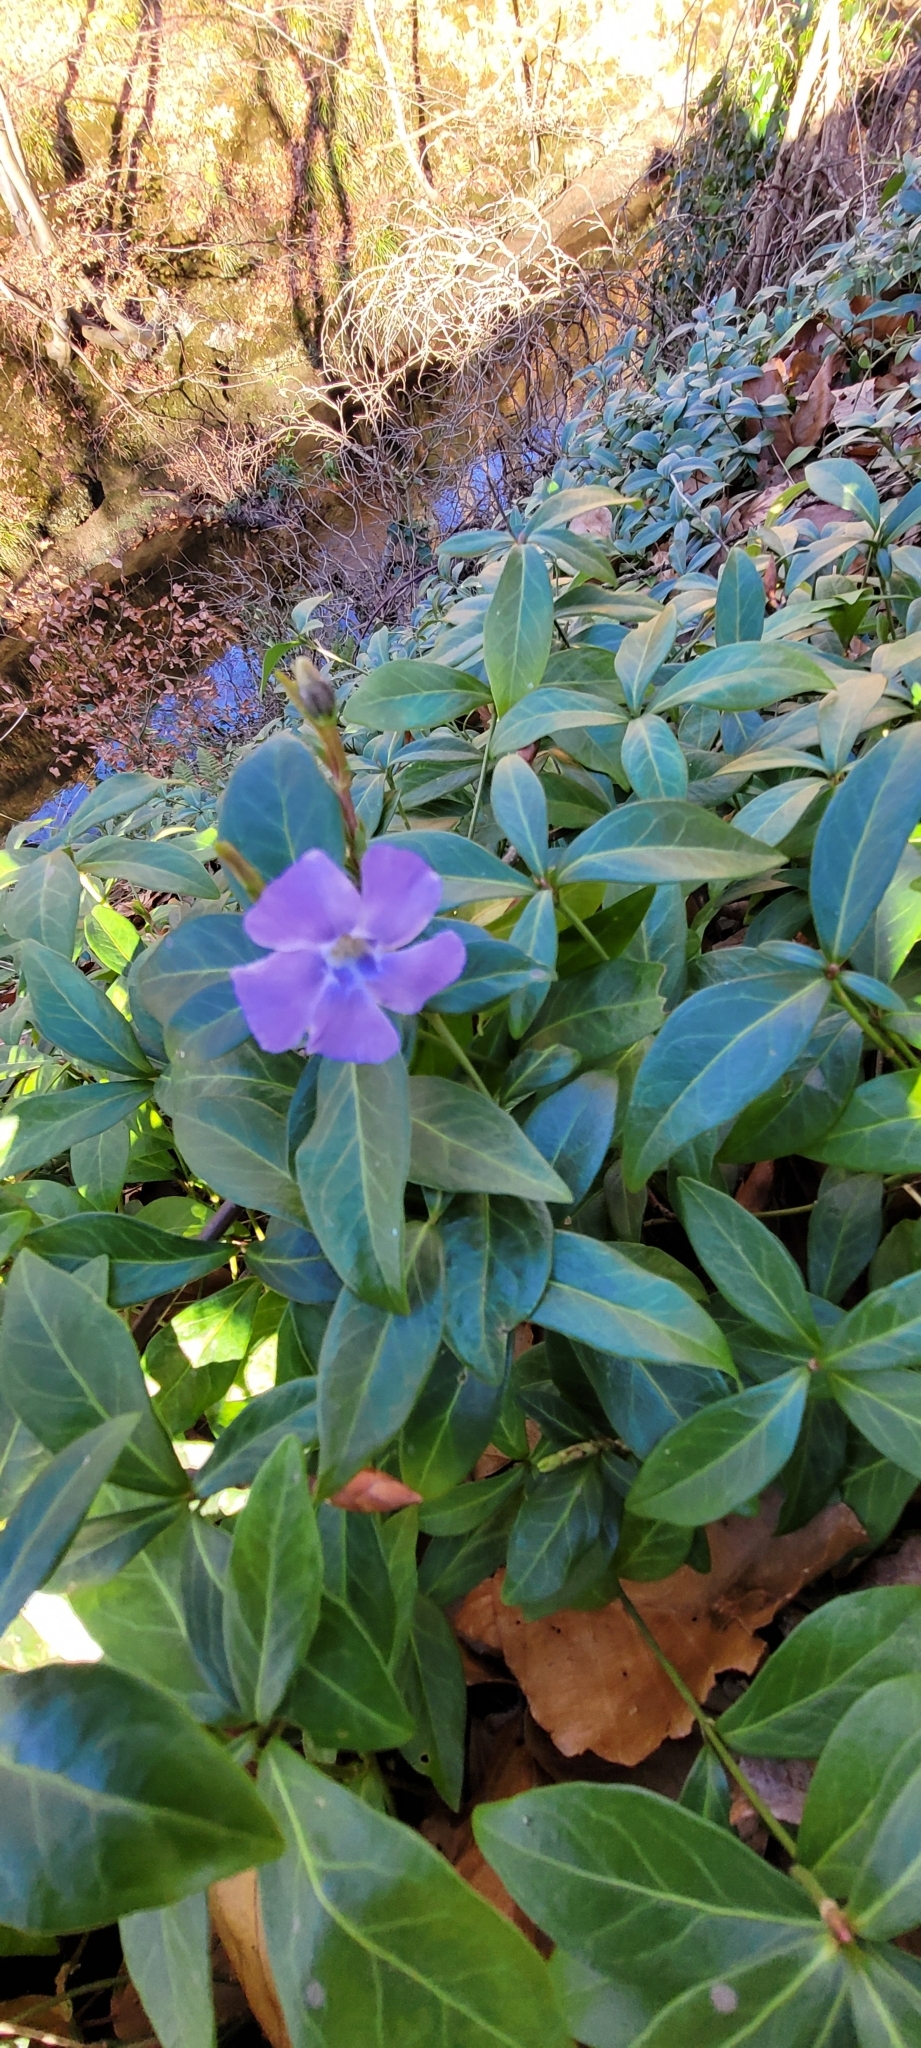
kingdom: Plantae
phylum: Tracheophyta
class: Magnoliopsida
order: Gentianales
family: Apocynaceae
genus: Vinca
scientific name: Vinca minor
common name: Lesser periwinkle
